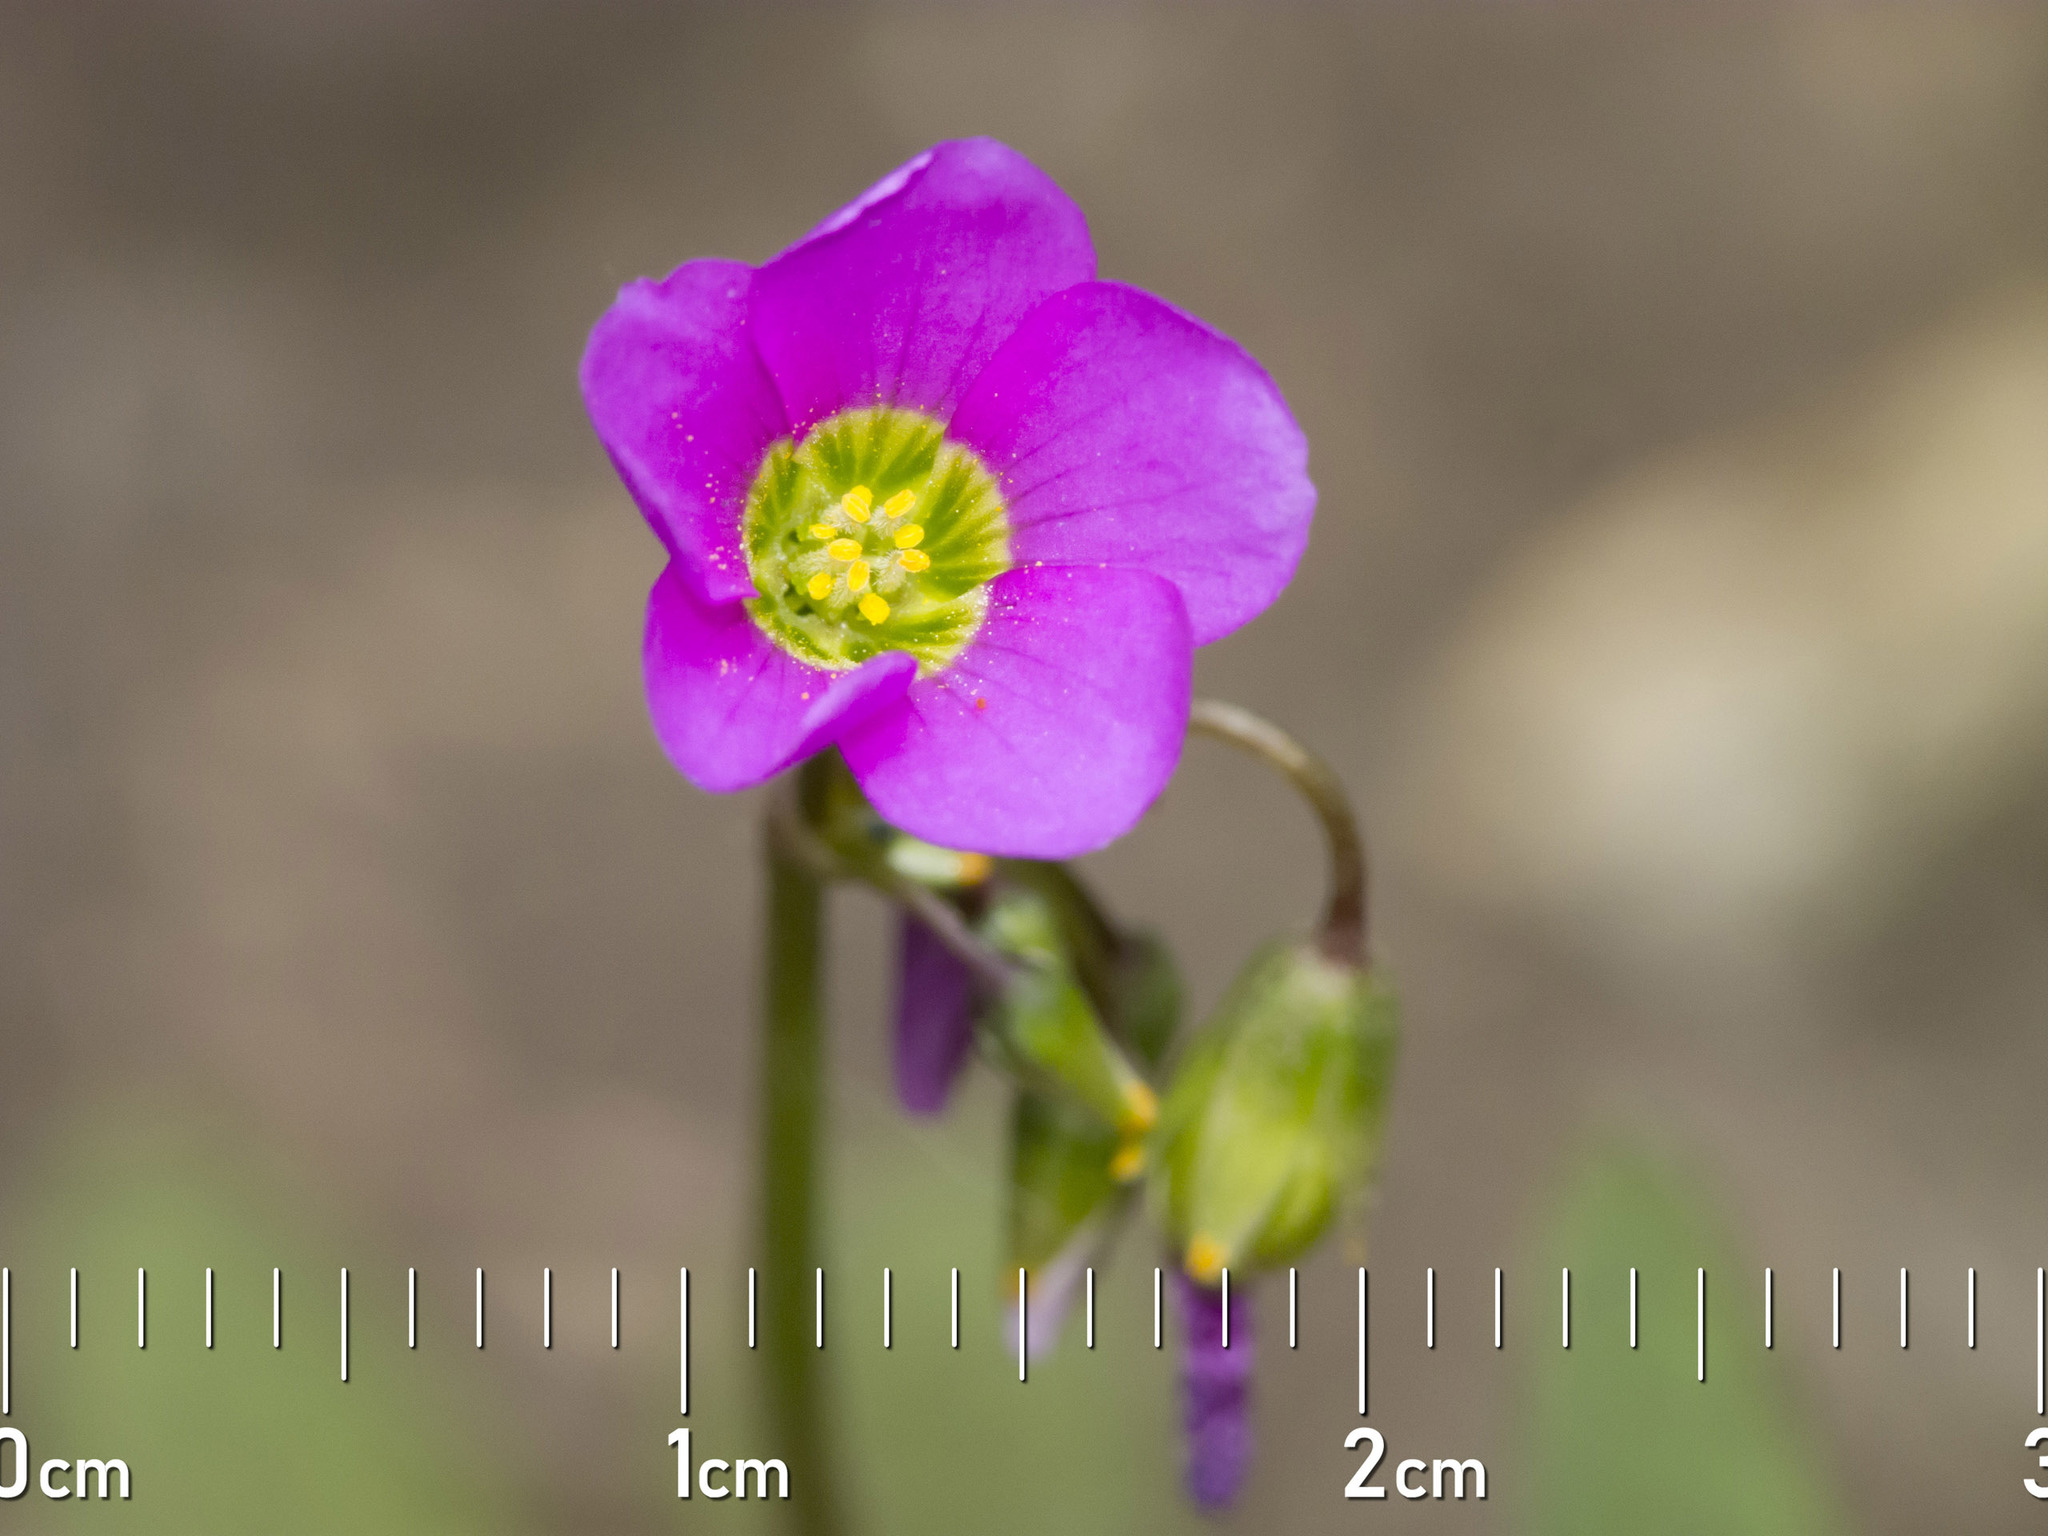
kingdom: Plantae
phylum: Tracheophyta
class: Magnoliopsida
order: Oxalidales
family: Oxalidaceae
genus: Oxalis
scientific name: Oxalis latifolia
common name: Garden pink-sorrel
